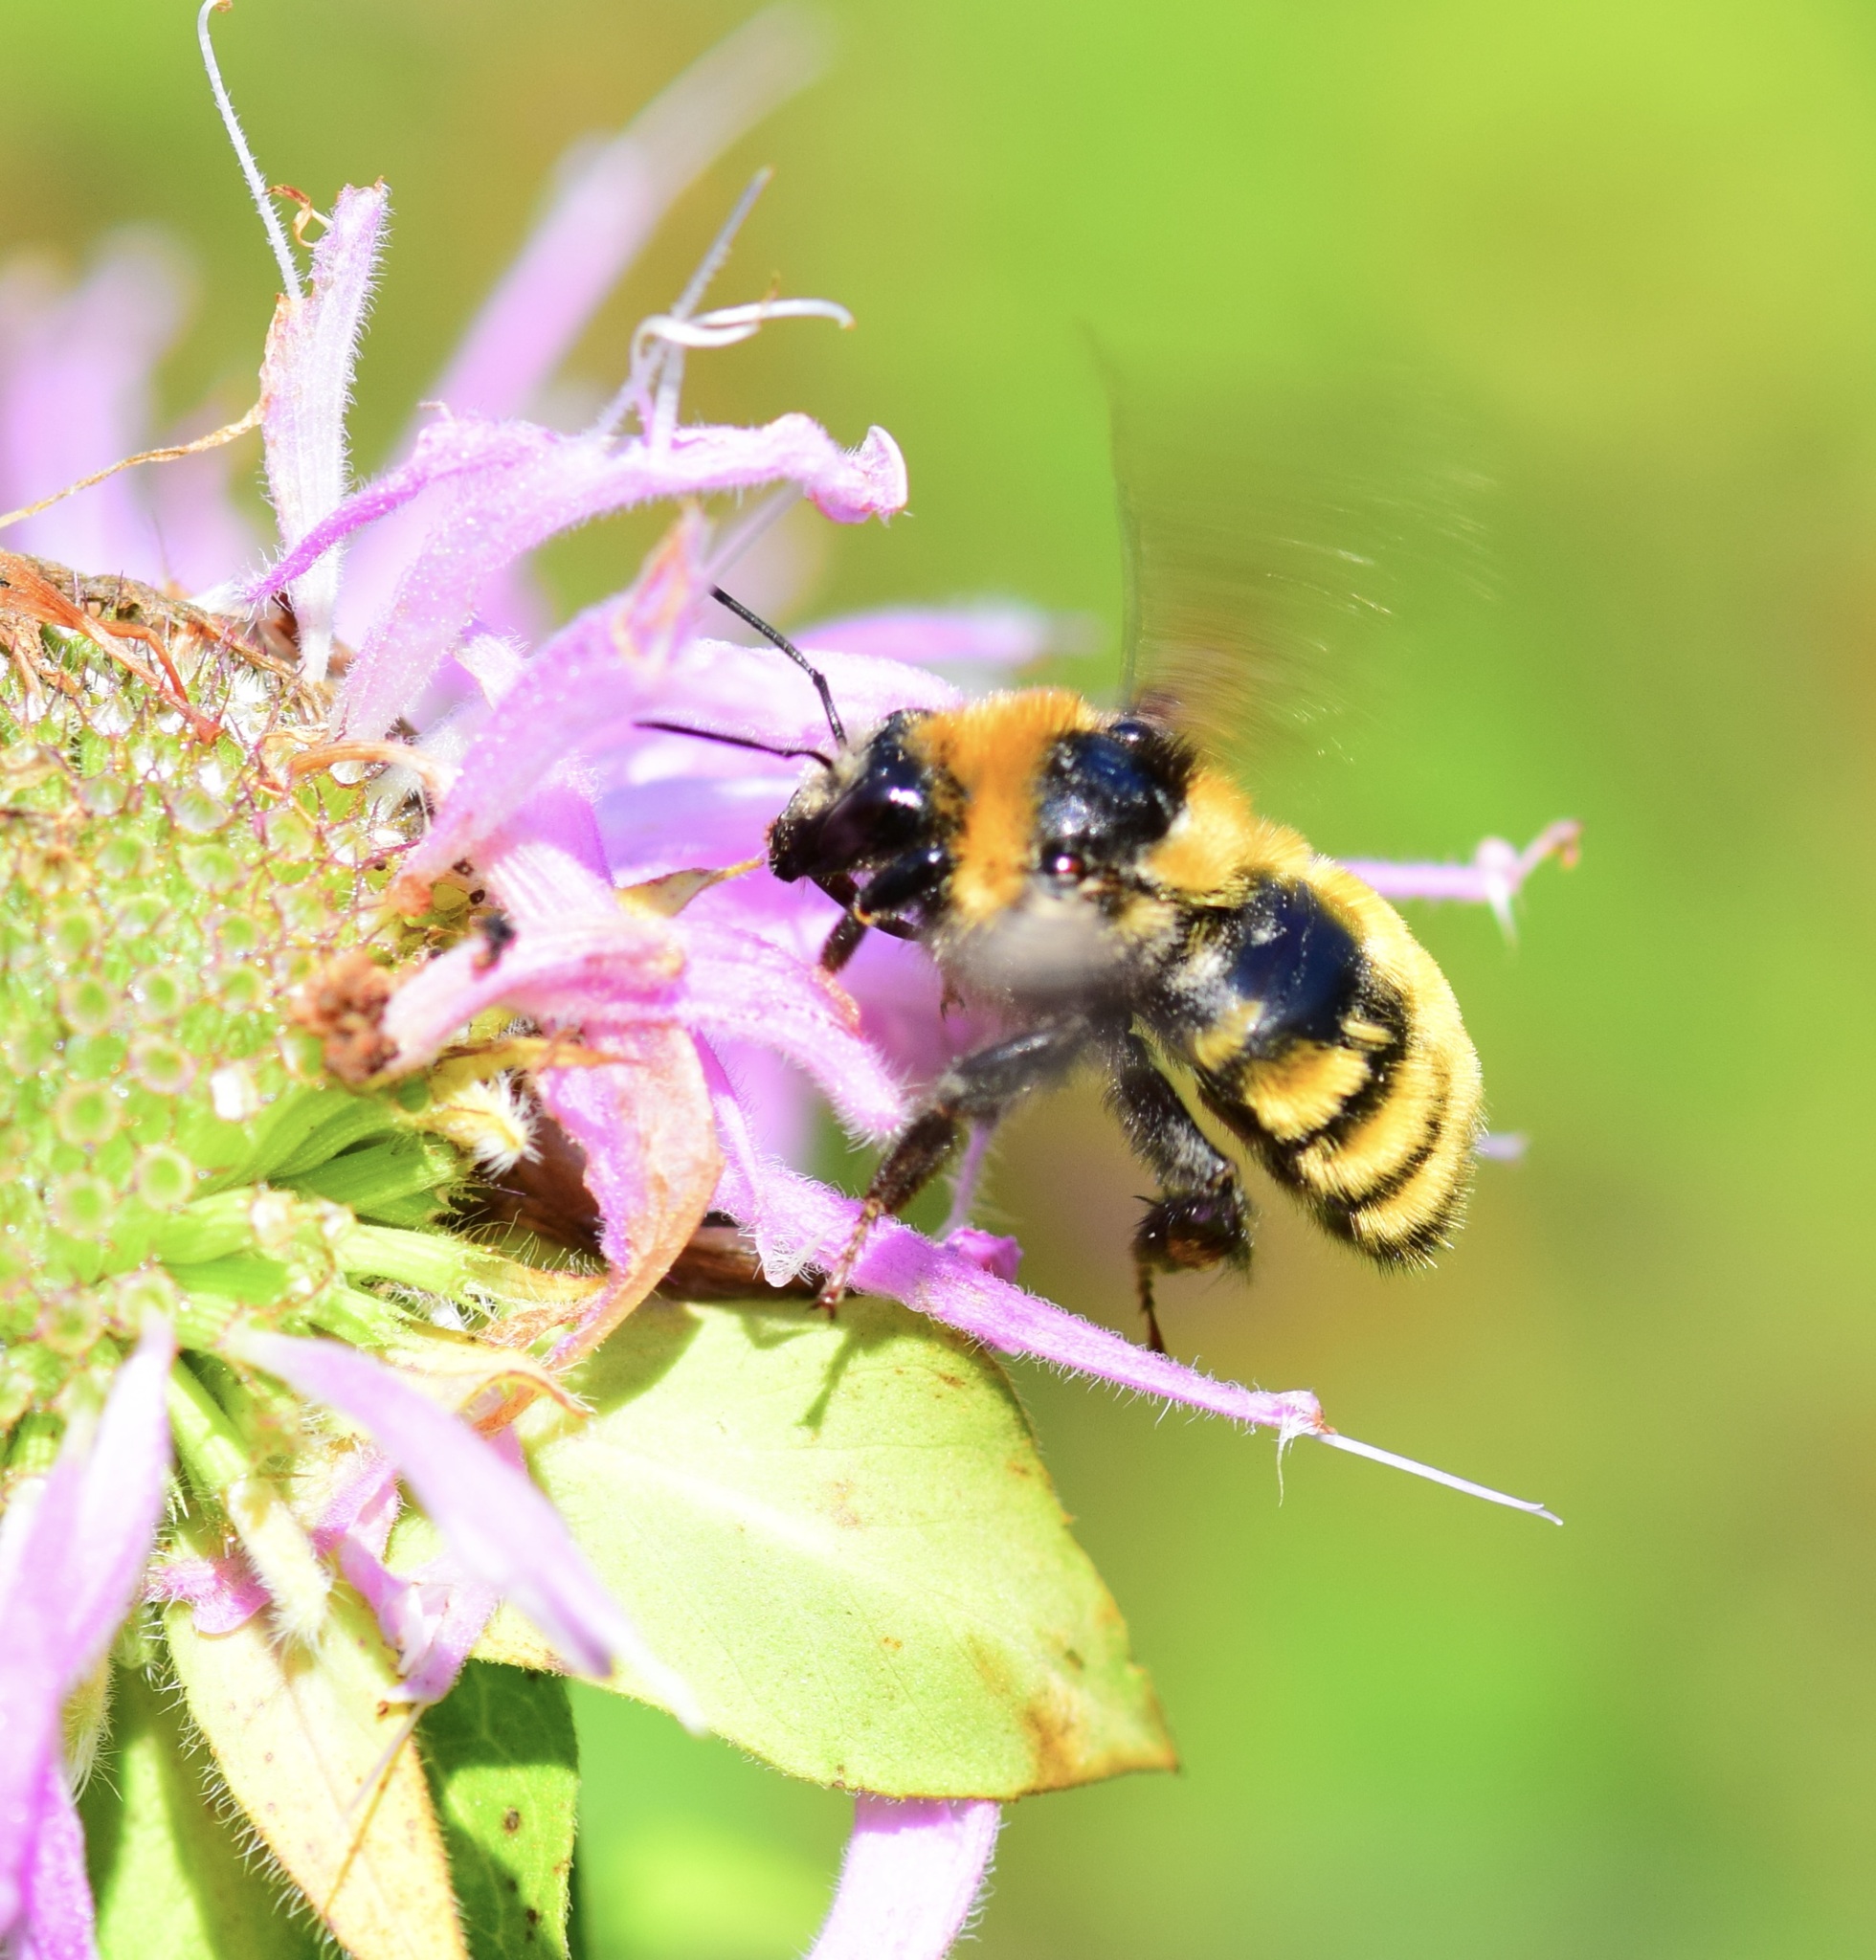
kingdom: Animalia
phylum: Arthropoda
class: Insecta
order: Hymenoptera
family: Apidae
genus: Bombus
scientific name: Bombus borealis
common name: Northern amber bumble bee
